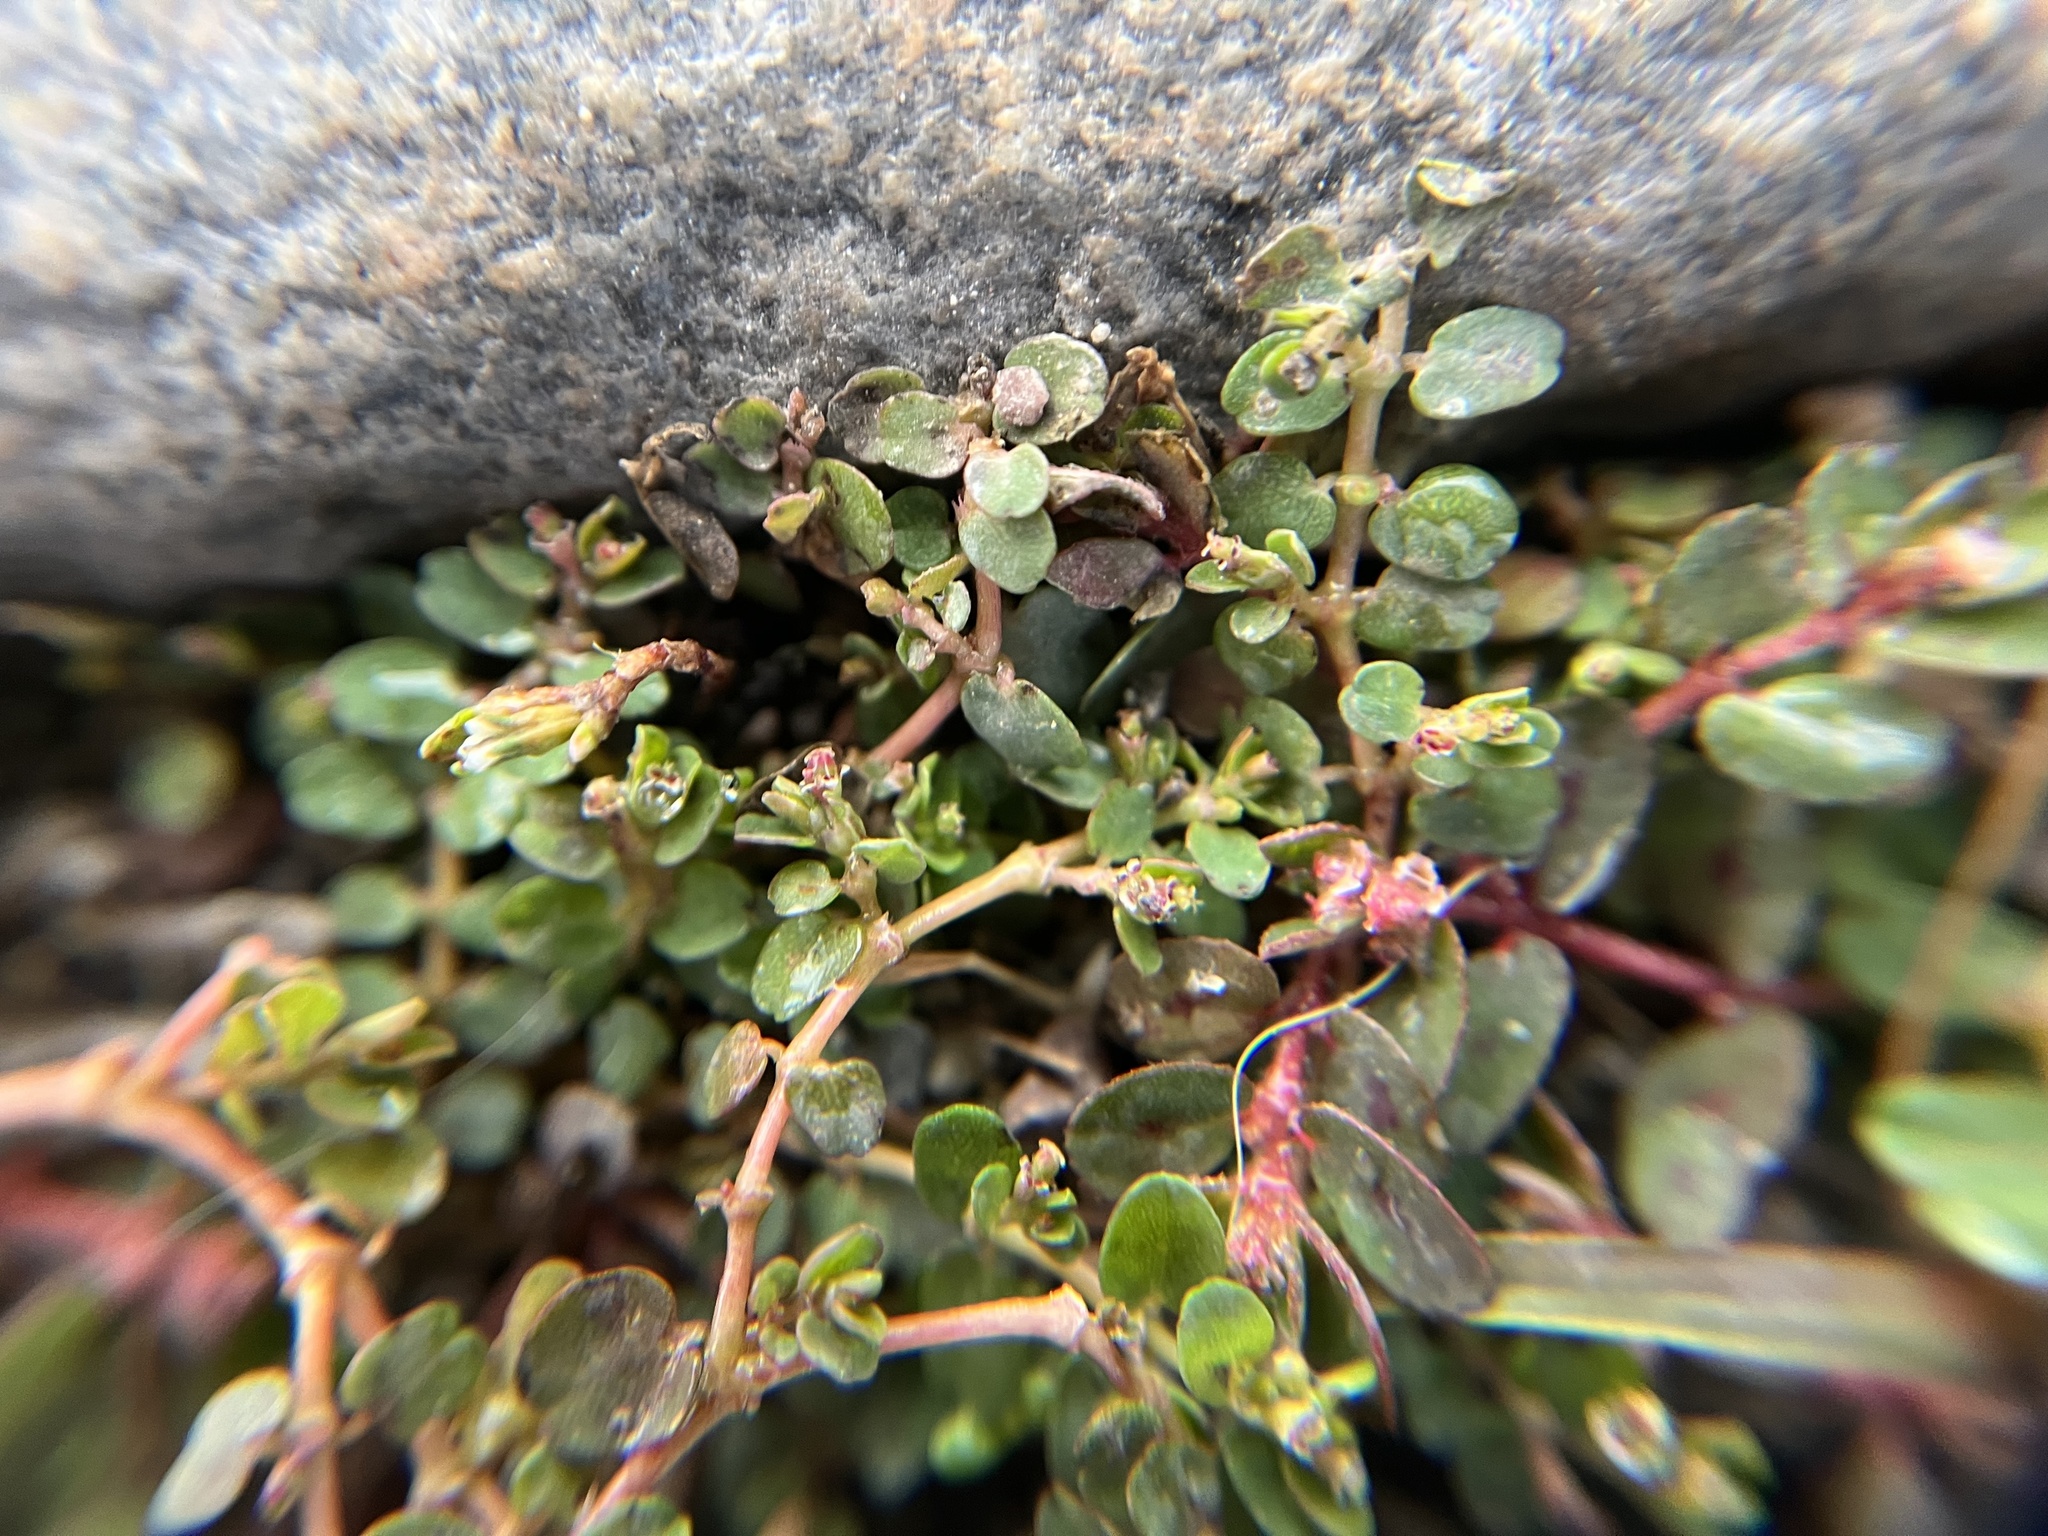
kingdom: Plantae
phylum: Tracheophyta
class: Magnoliopsida
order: Malpighiales
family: Euphorbiaceae
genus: Euphorbia
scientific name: Euphorbia serpens
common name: Matted sandmat
